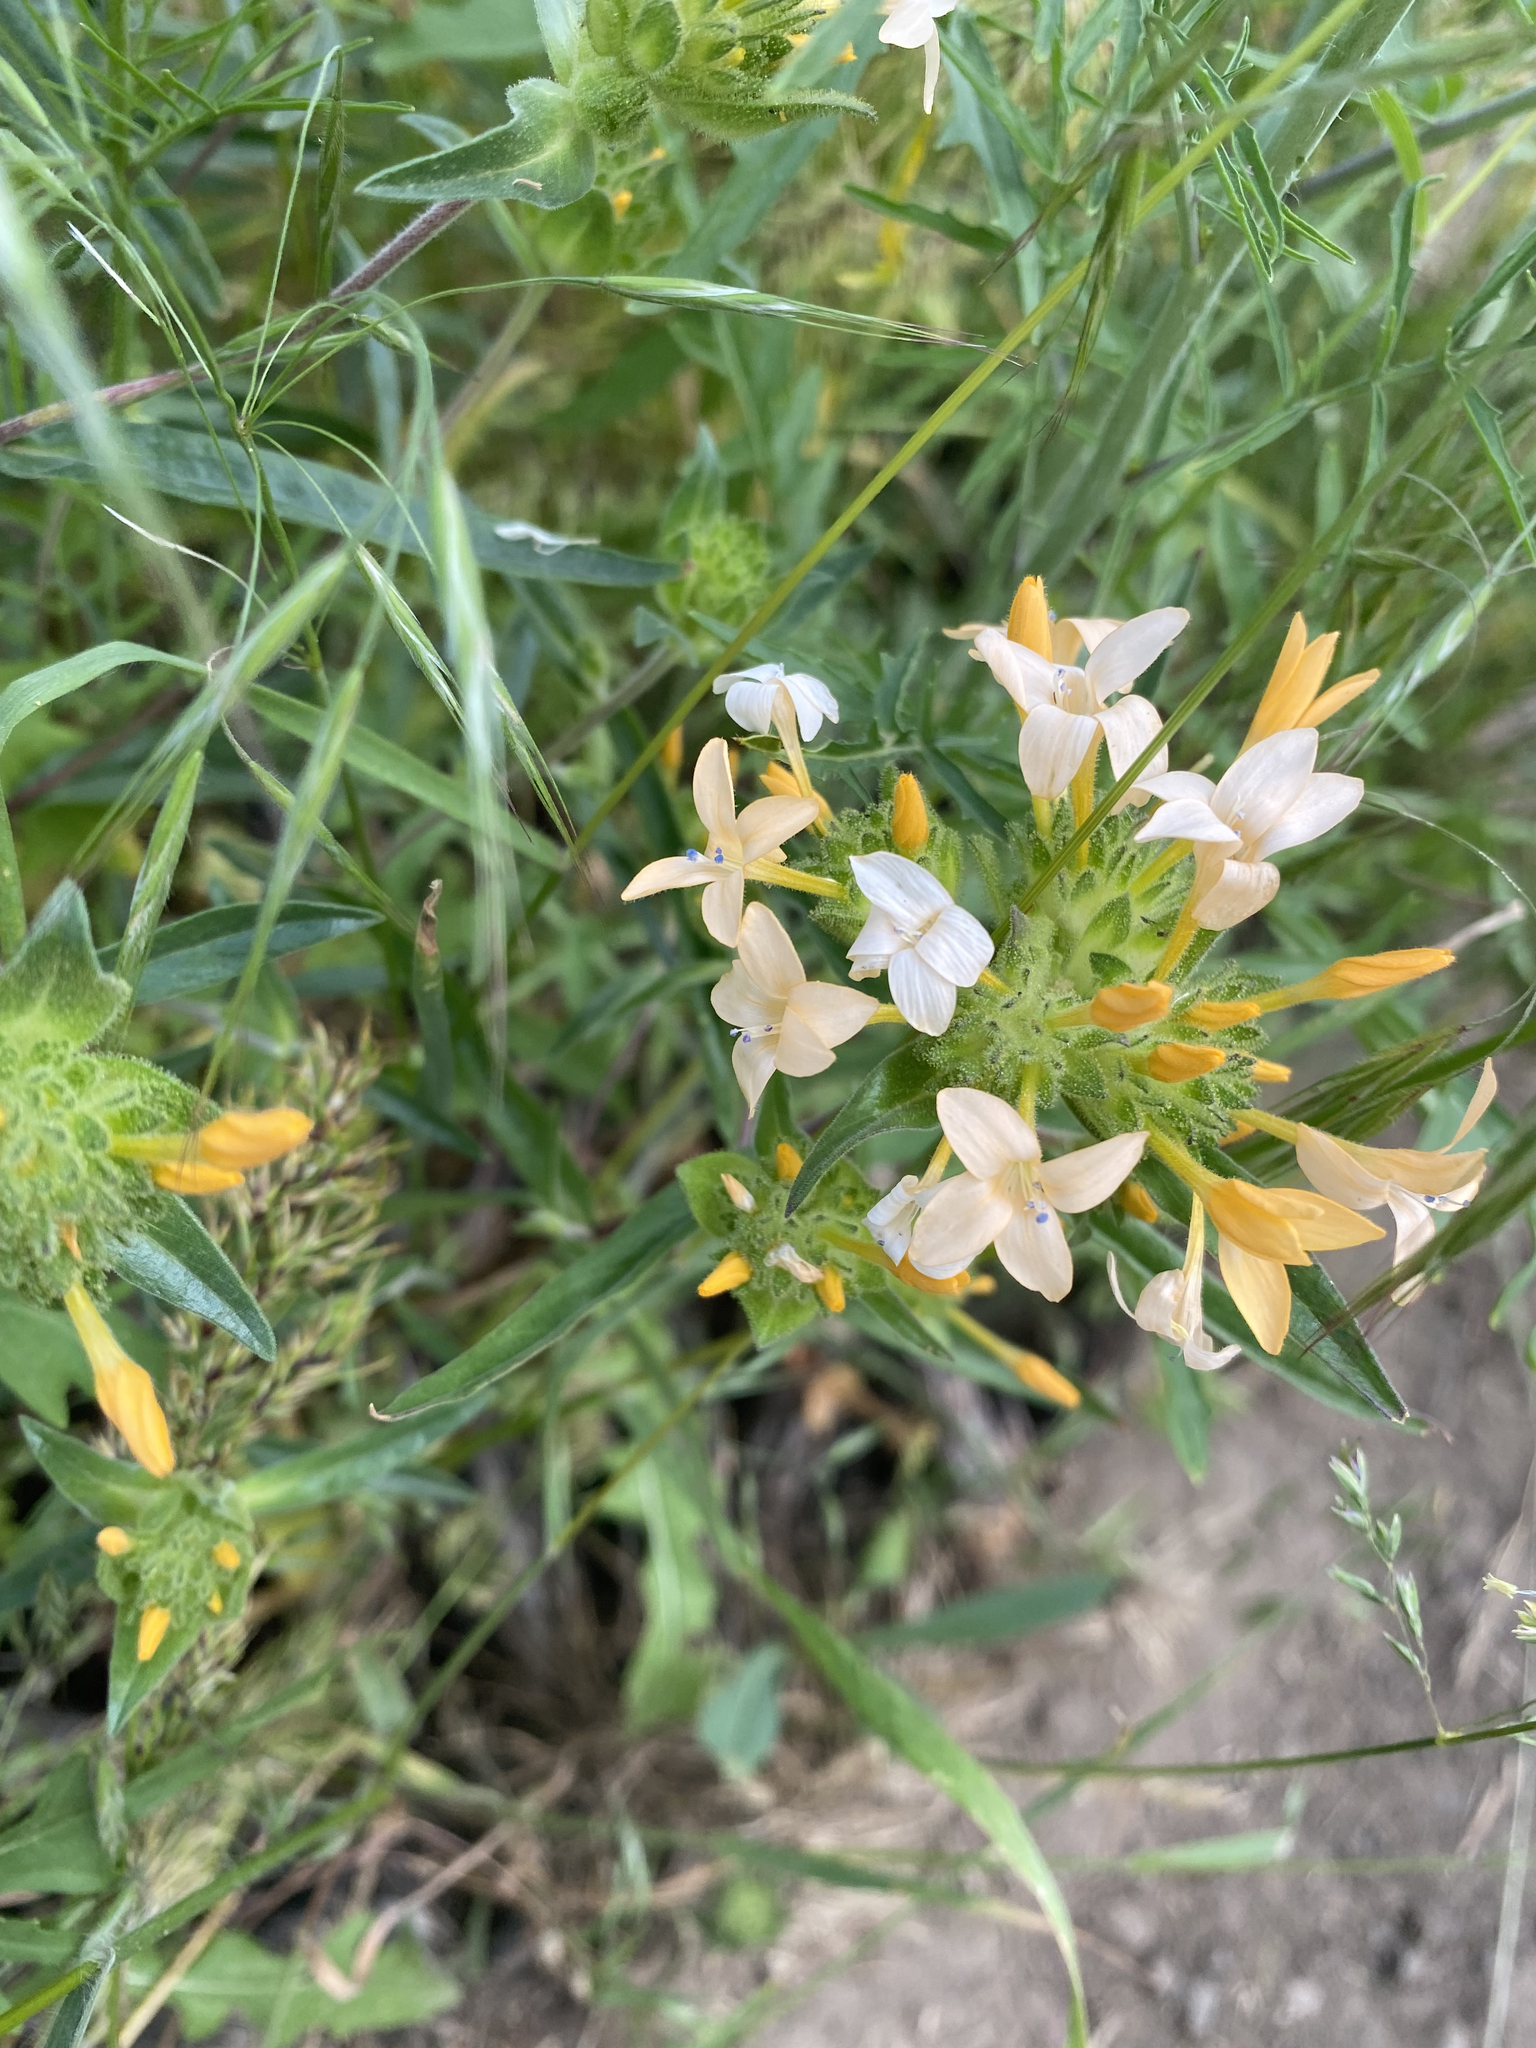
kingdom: Plantae
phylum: Tracheophyta
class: Magnoliopsida
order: Ericales
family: Polemoniaceae
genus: Collomia
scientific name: Collomia grandiflora
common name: California strawflower
